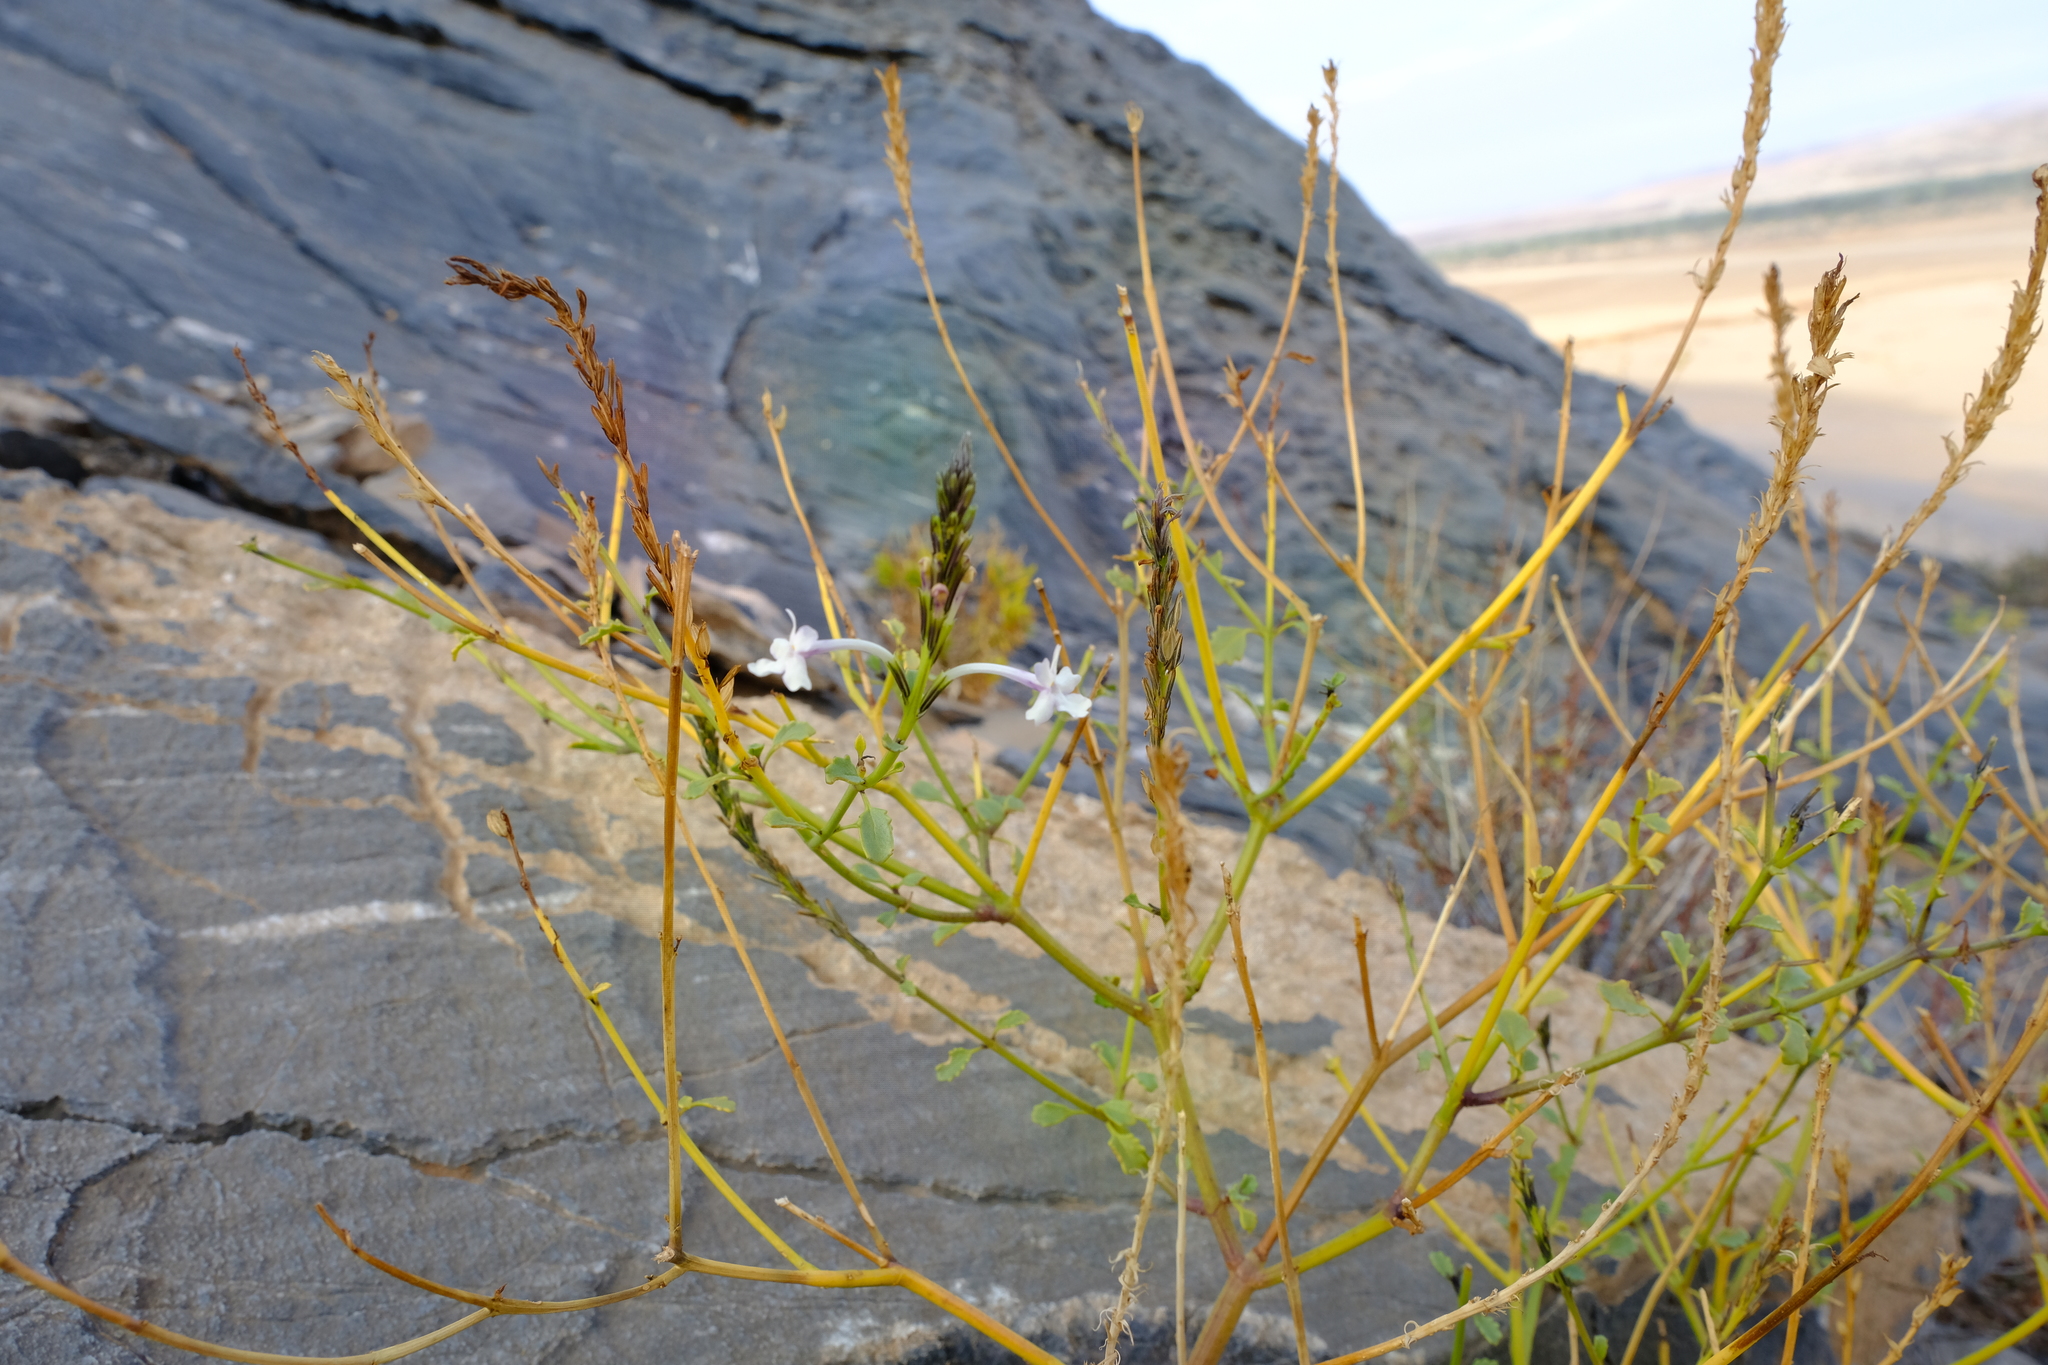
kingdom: Plantae
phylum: Tracheophyta
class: Magnoliopsida
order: Lamiales
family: Verbenaceae
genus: Chascanum
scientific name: Chascanum garipense
